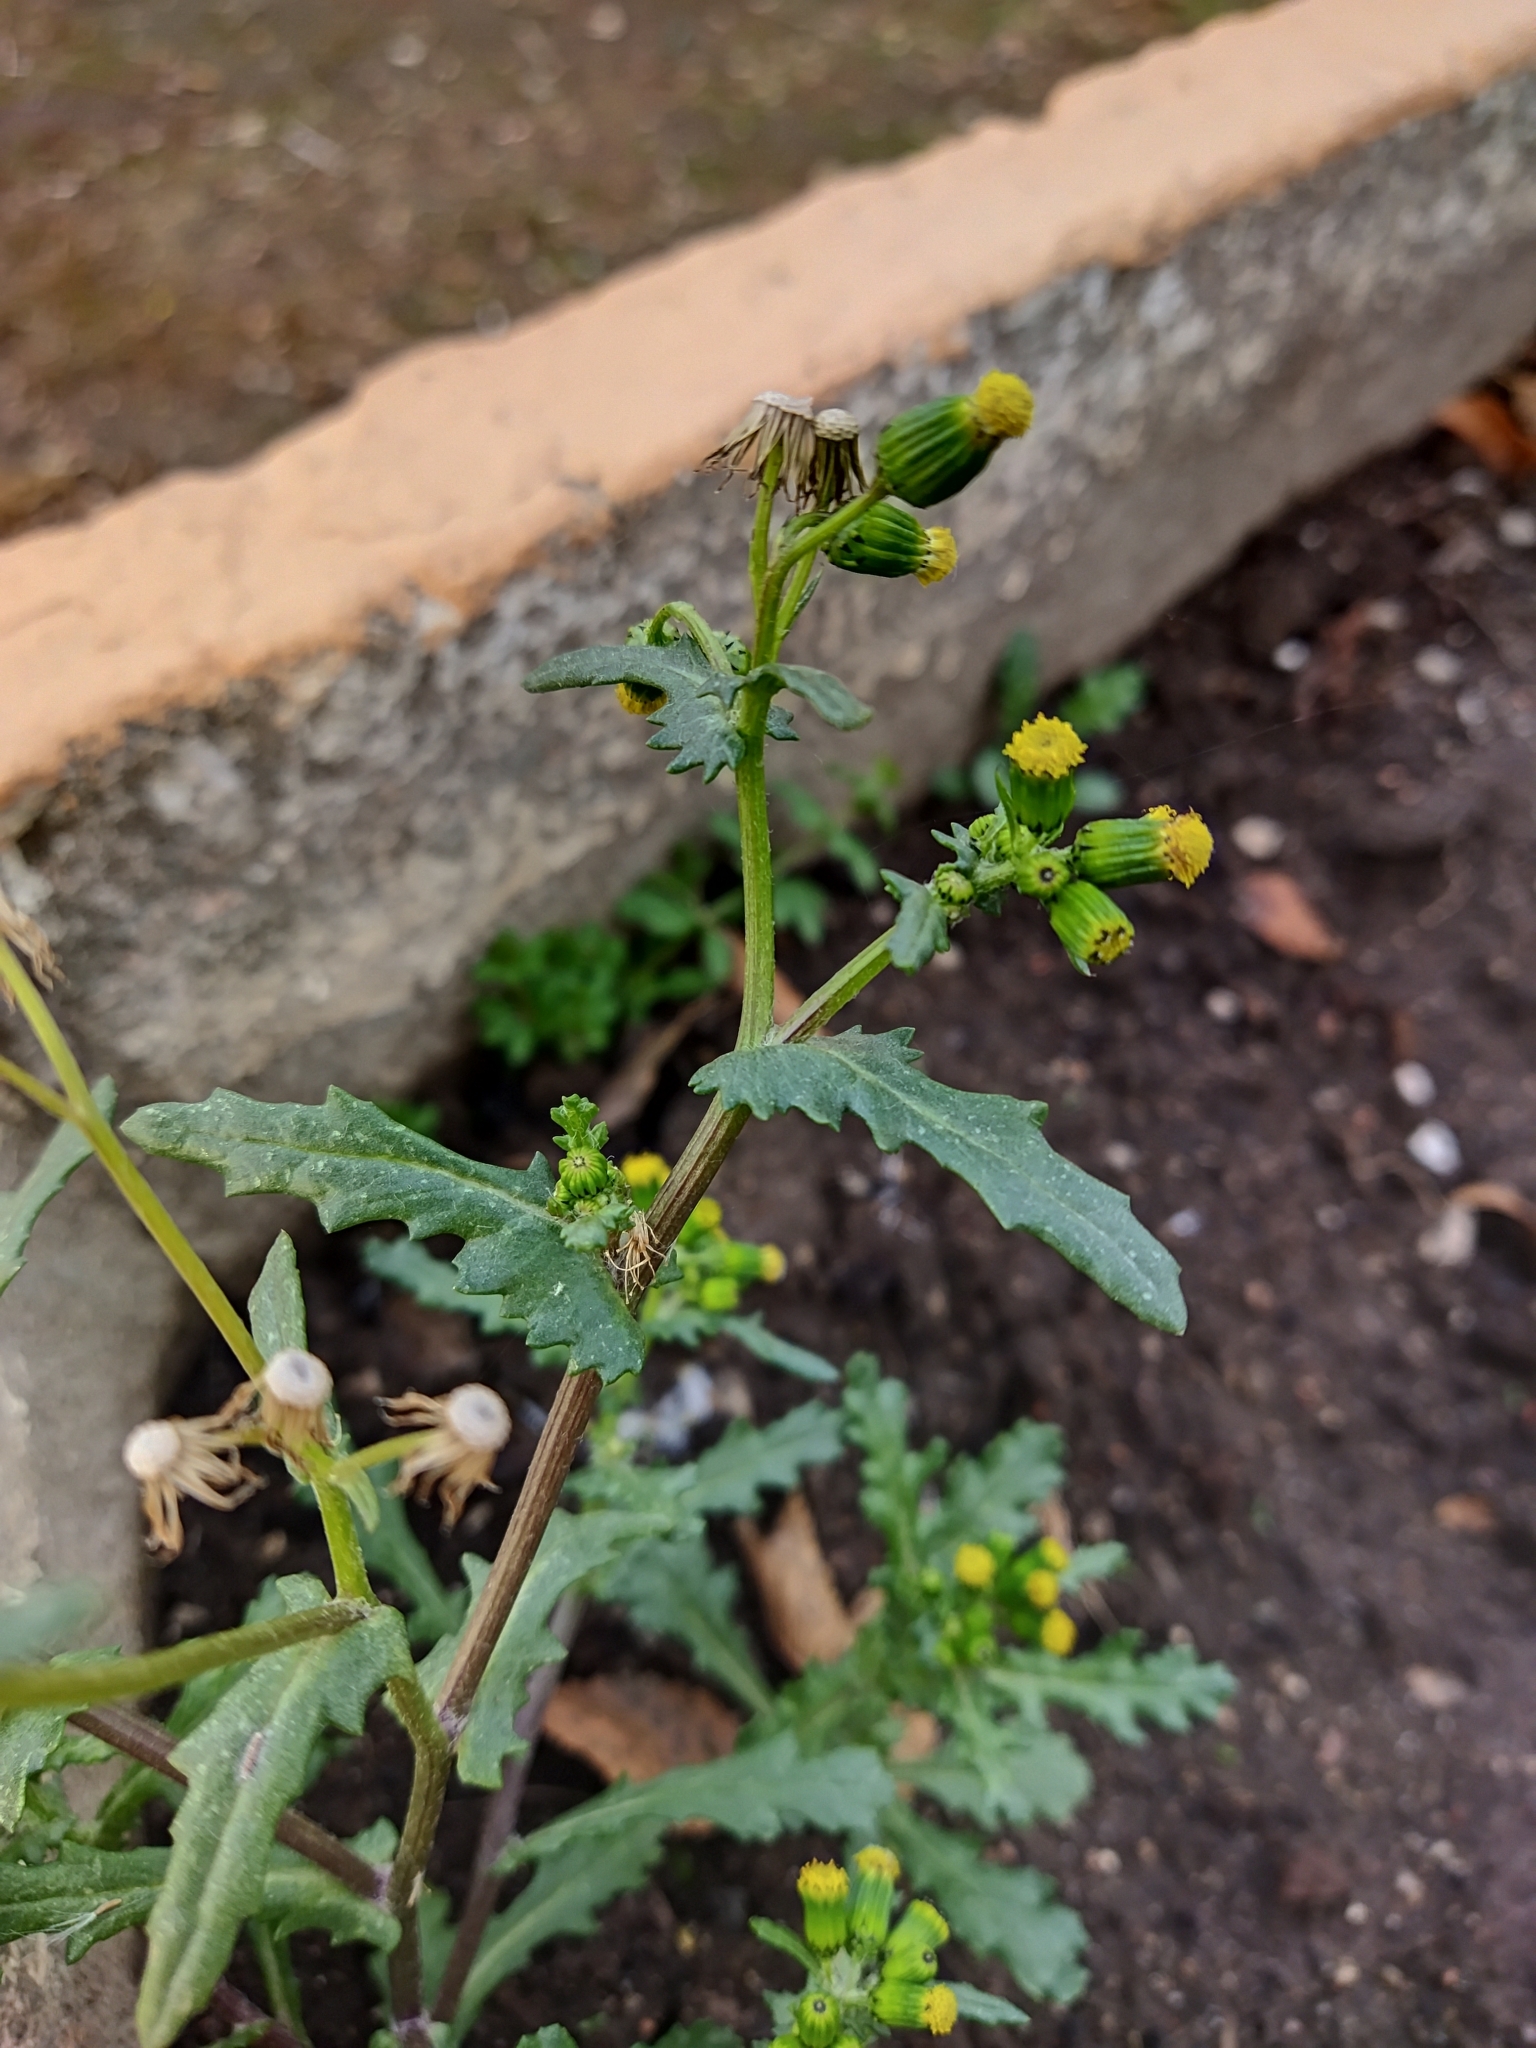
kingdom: Plantae
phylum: Tracheophyta
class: Magnoliopsida
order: Asterales
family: Asteraceae
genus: Senecio
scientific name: Senecio vulgaris
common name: Old-man-in-the-spring
